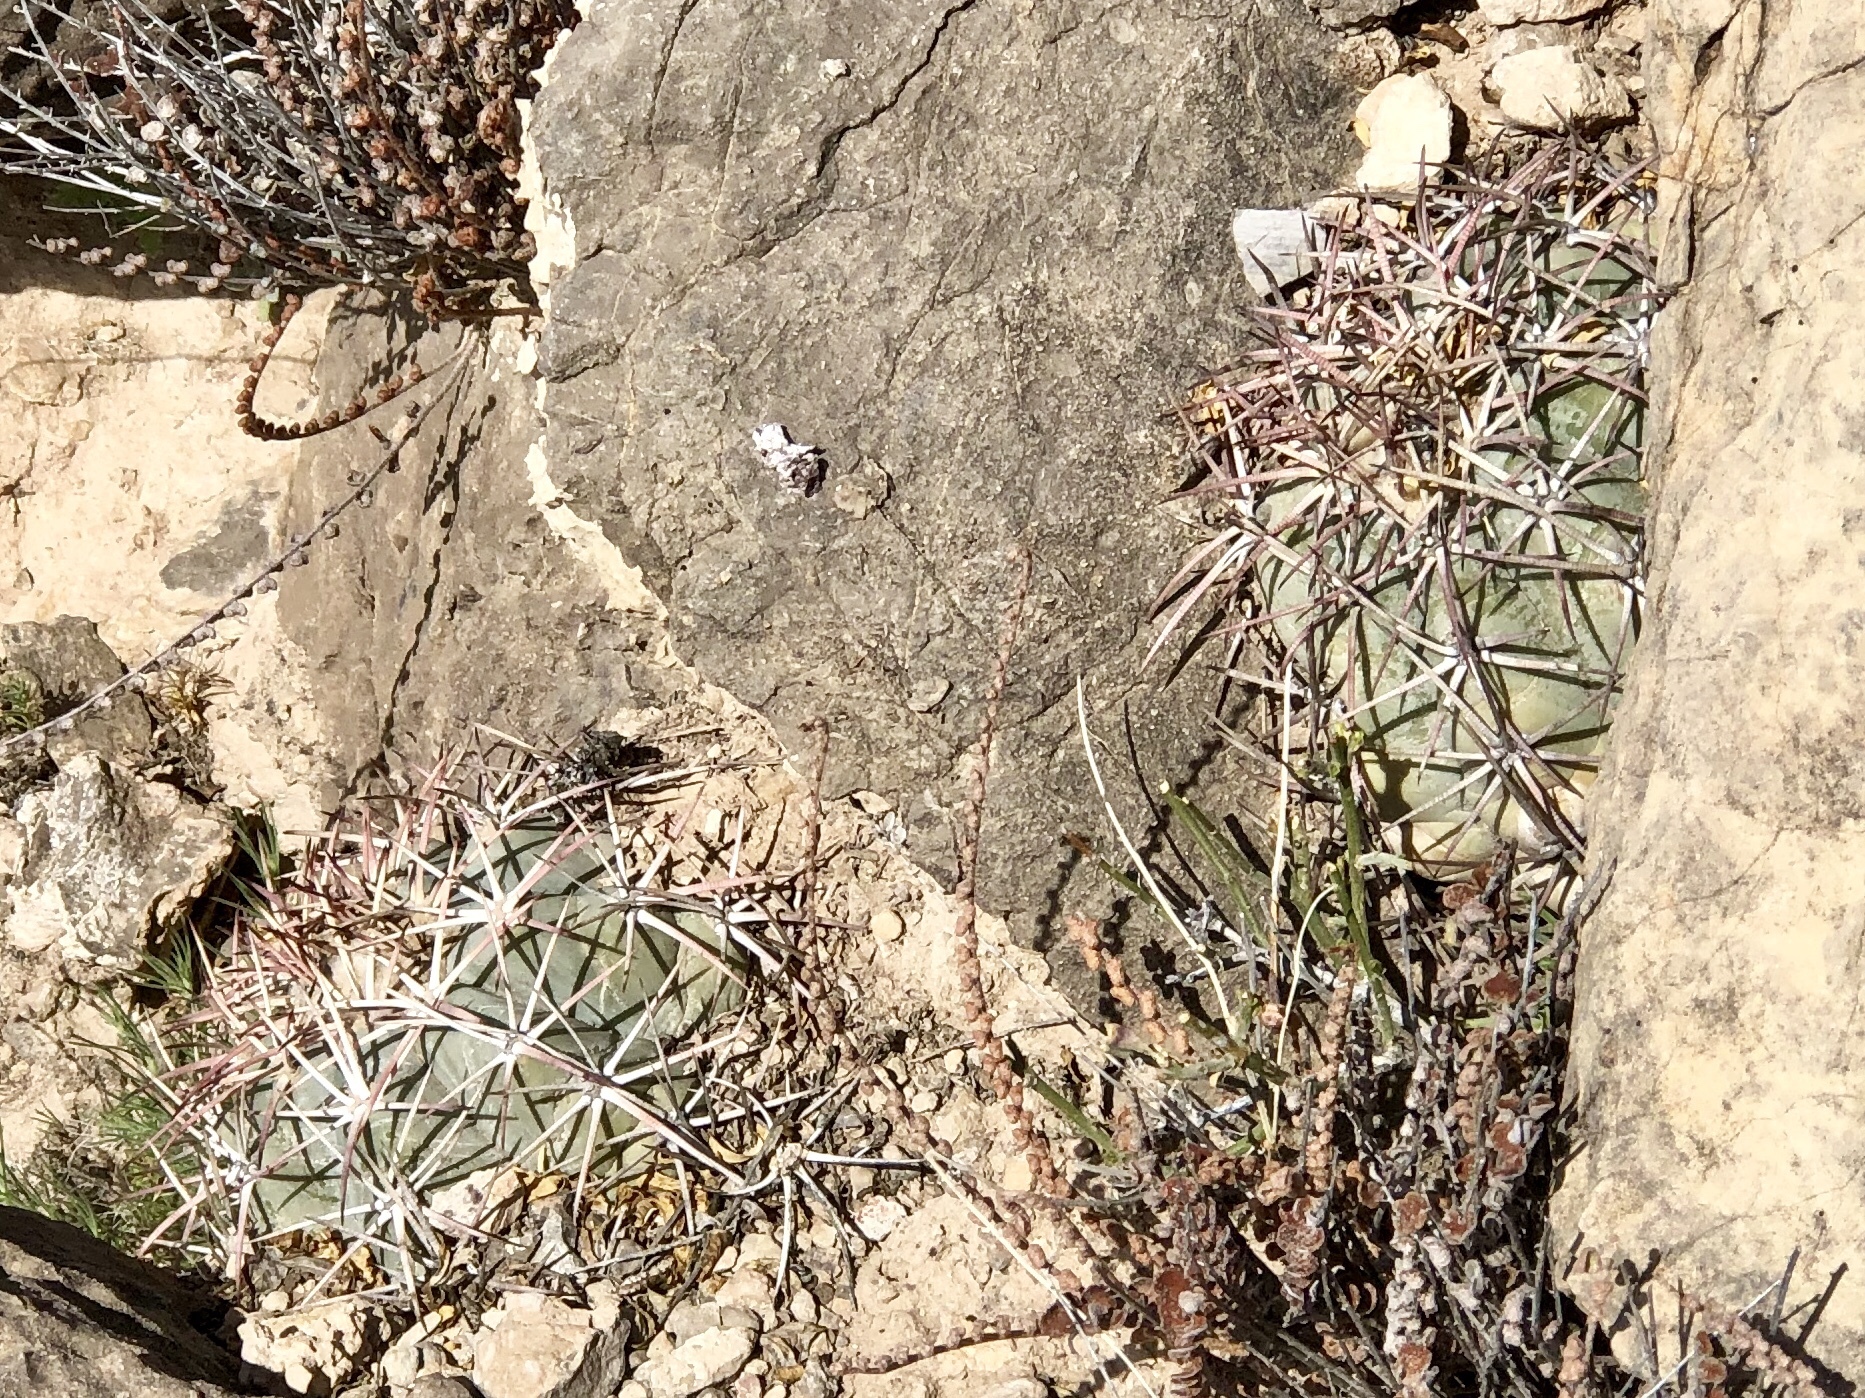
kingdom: Plantae
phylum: Tracheophyta
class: Magnoliopsida
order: Caryophyllales
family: Cactaceae
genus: Echinocactus
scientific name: Echinocactus horizonthalonius
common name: Devilshead
